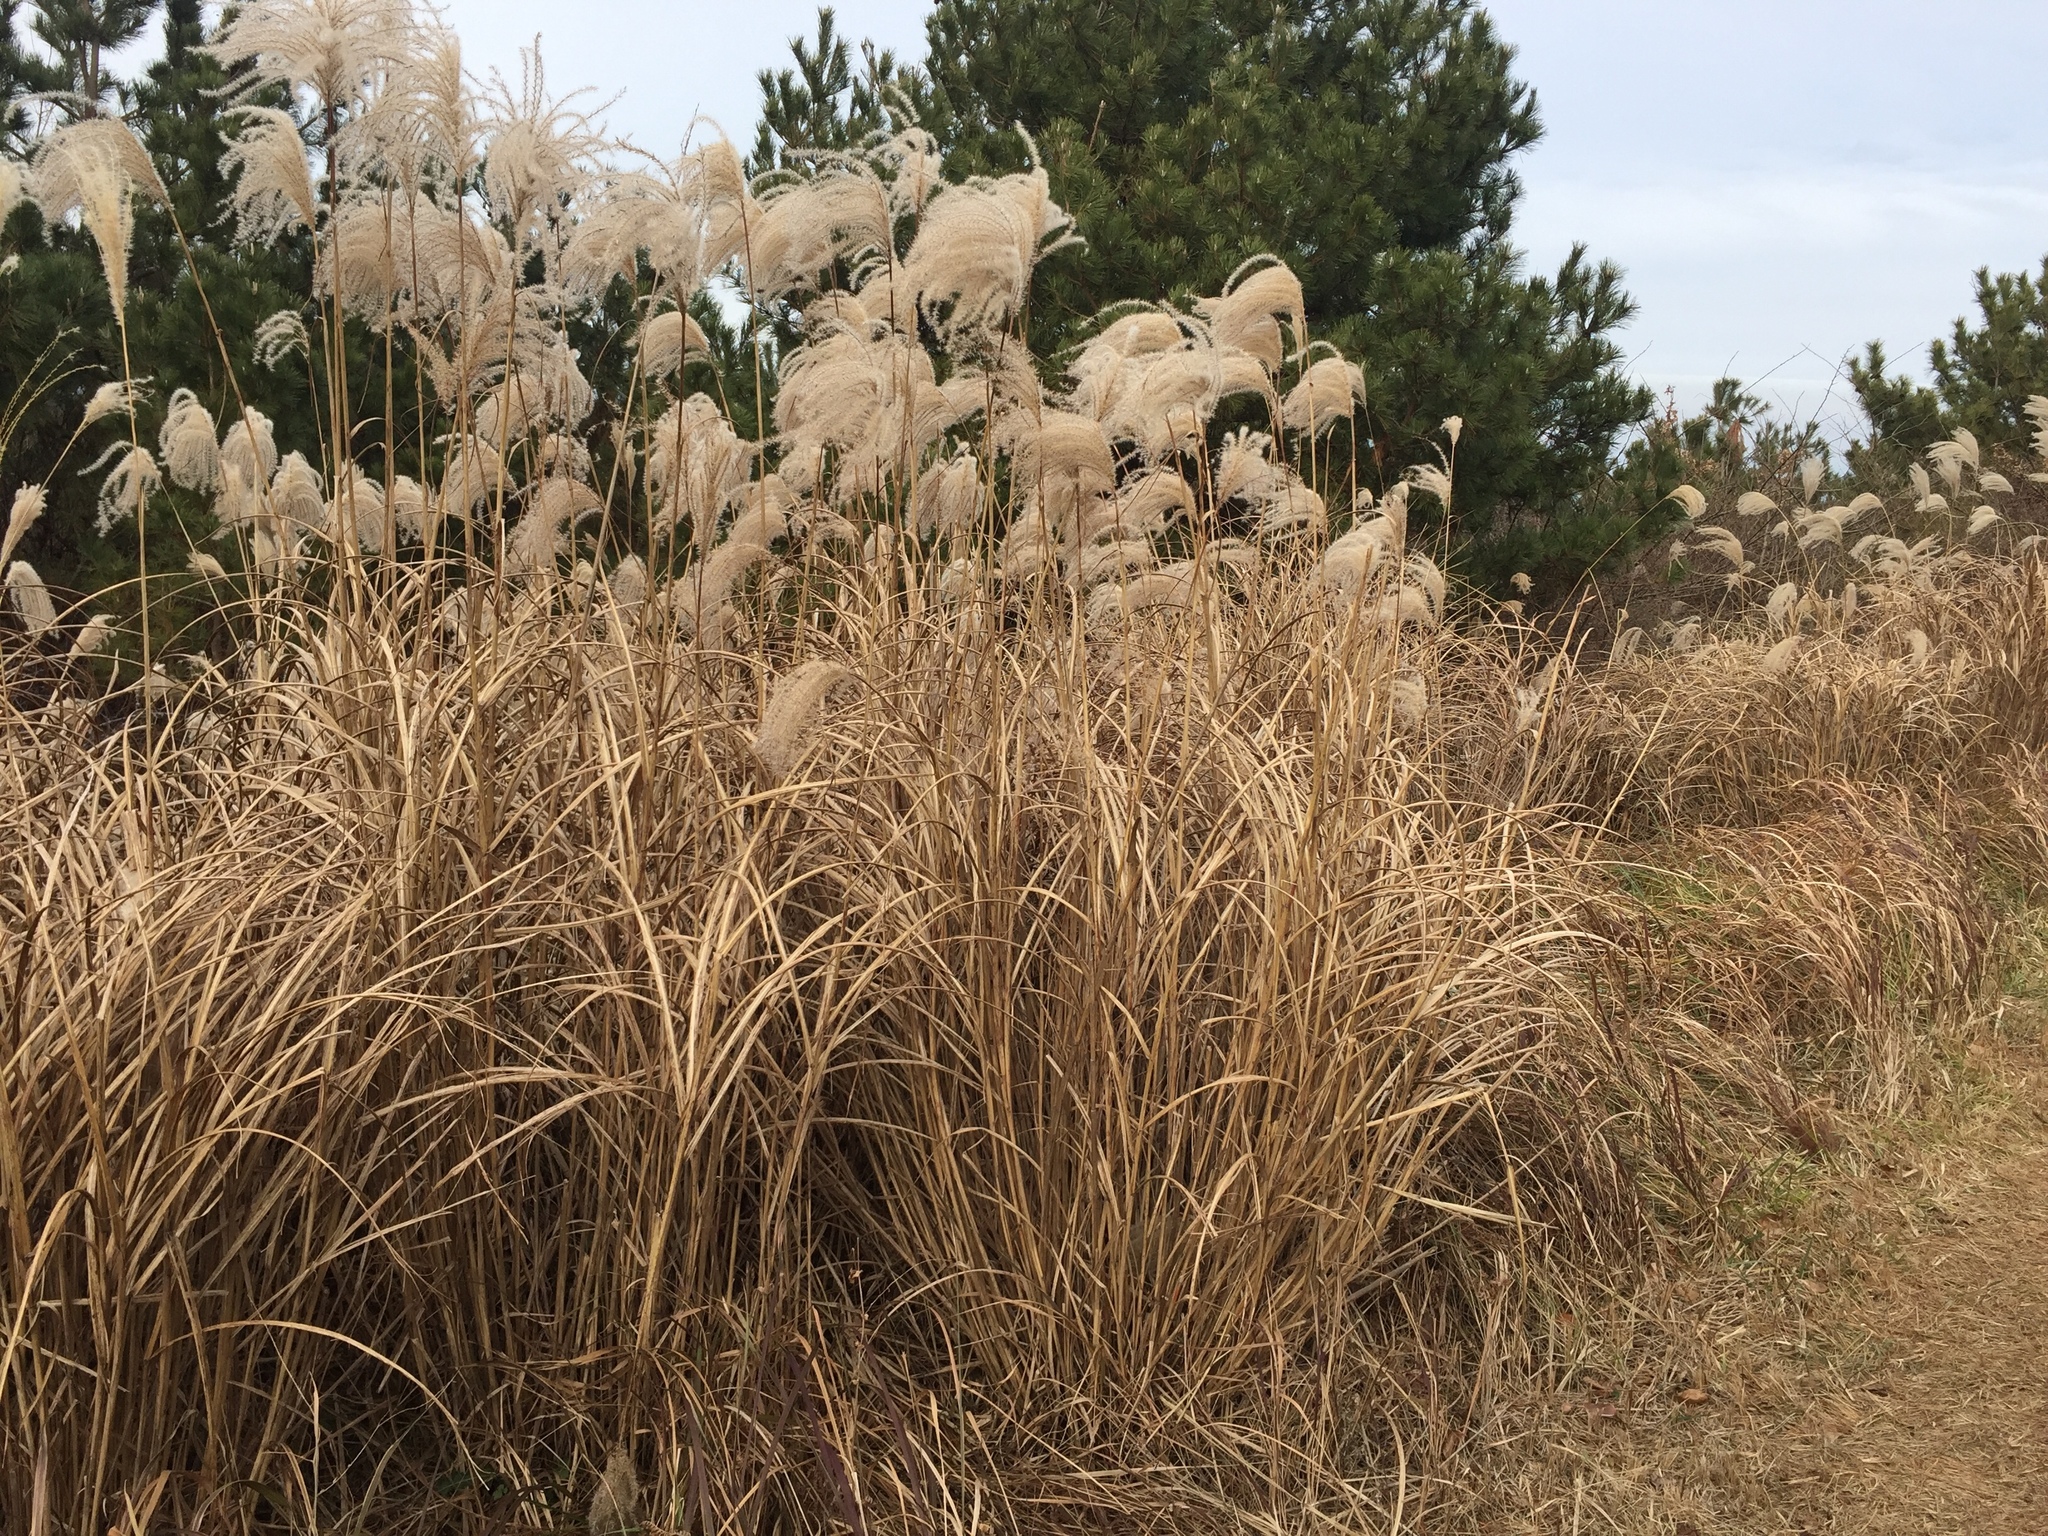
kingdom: Plantae
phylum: Tracheophyta
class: Liliopsida
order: Poales
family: Poaceae
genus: Miscanthus
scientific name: Miscanthus sinensis
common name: Chinese silvergrass
